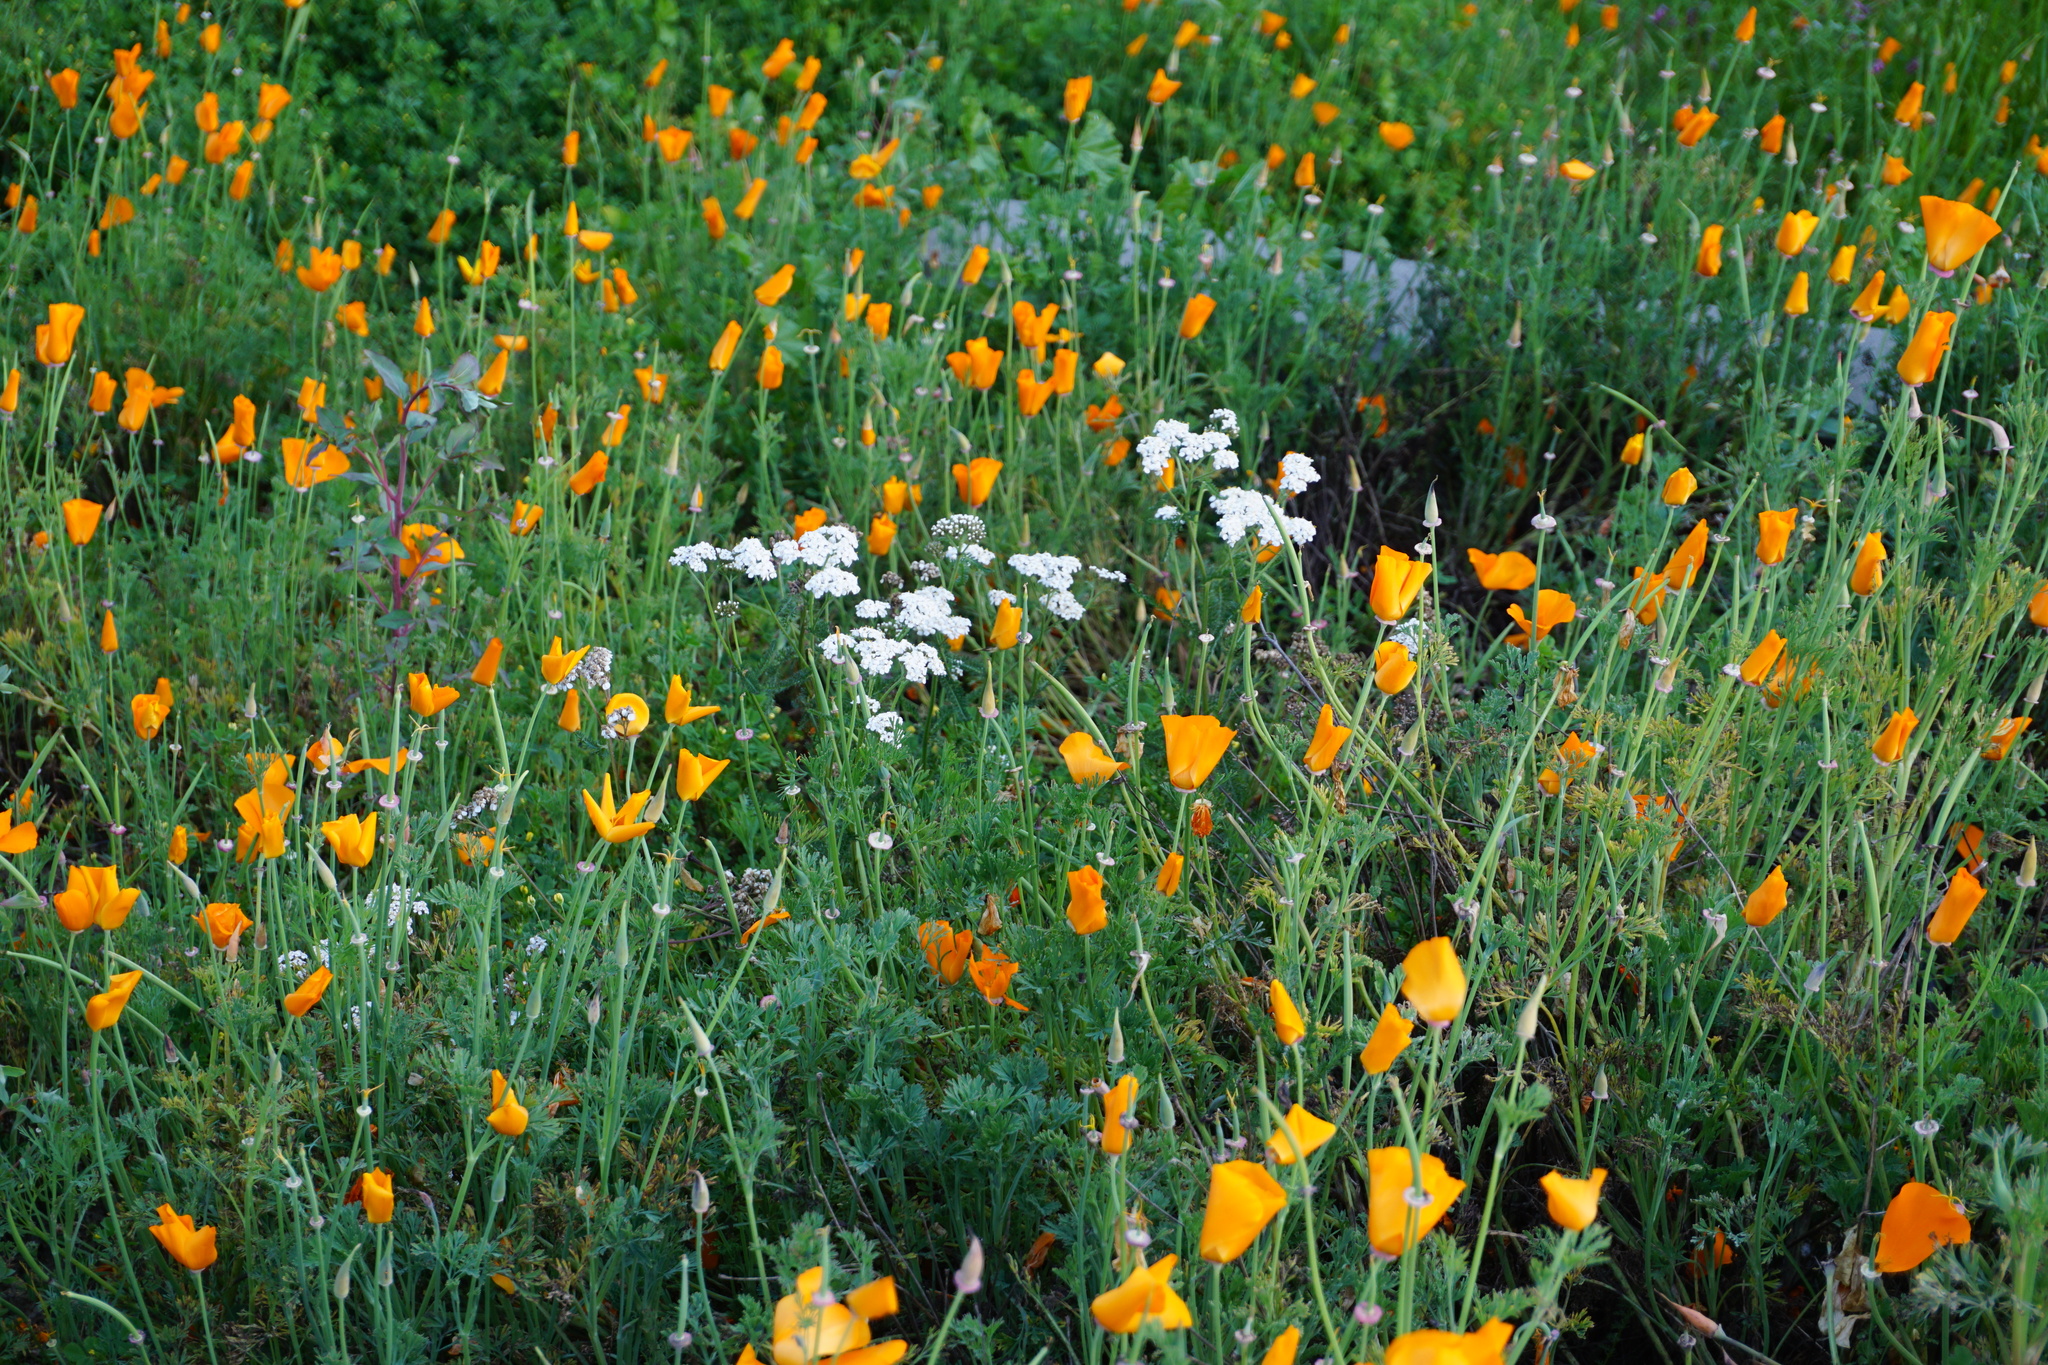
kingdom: Plantae
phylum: Tracheophyta
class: Magnoliopsida
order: Asterales
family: Asteraceae
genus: Achillea
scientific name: Achillea millefolium
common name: Yarrow
